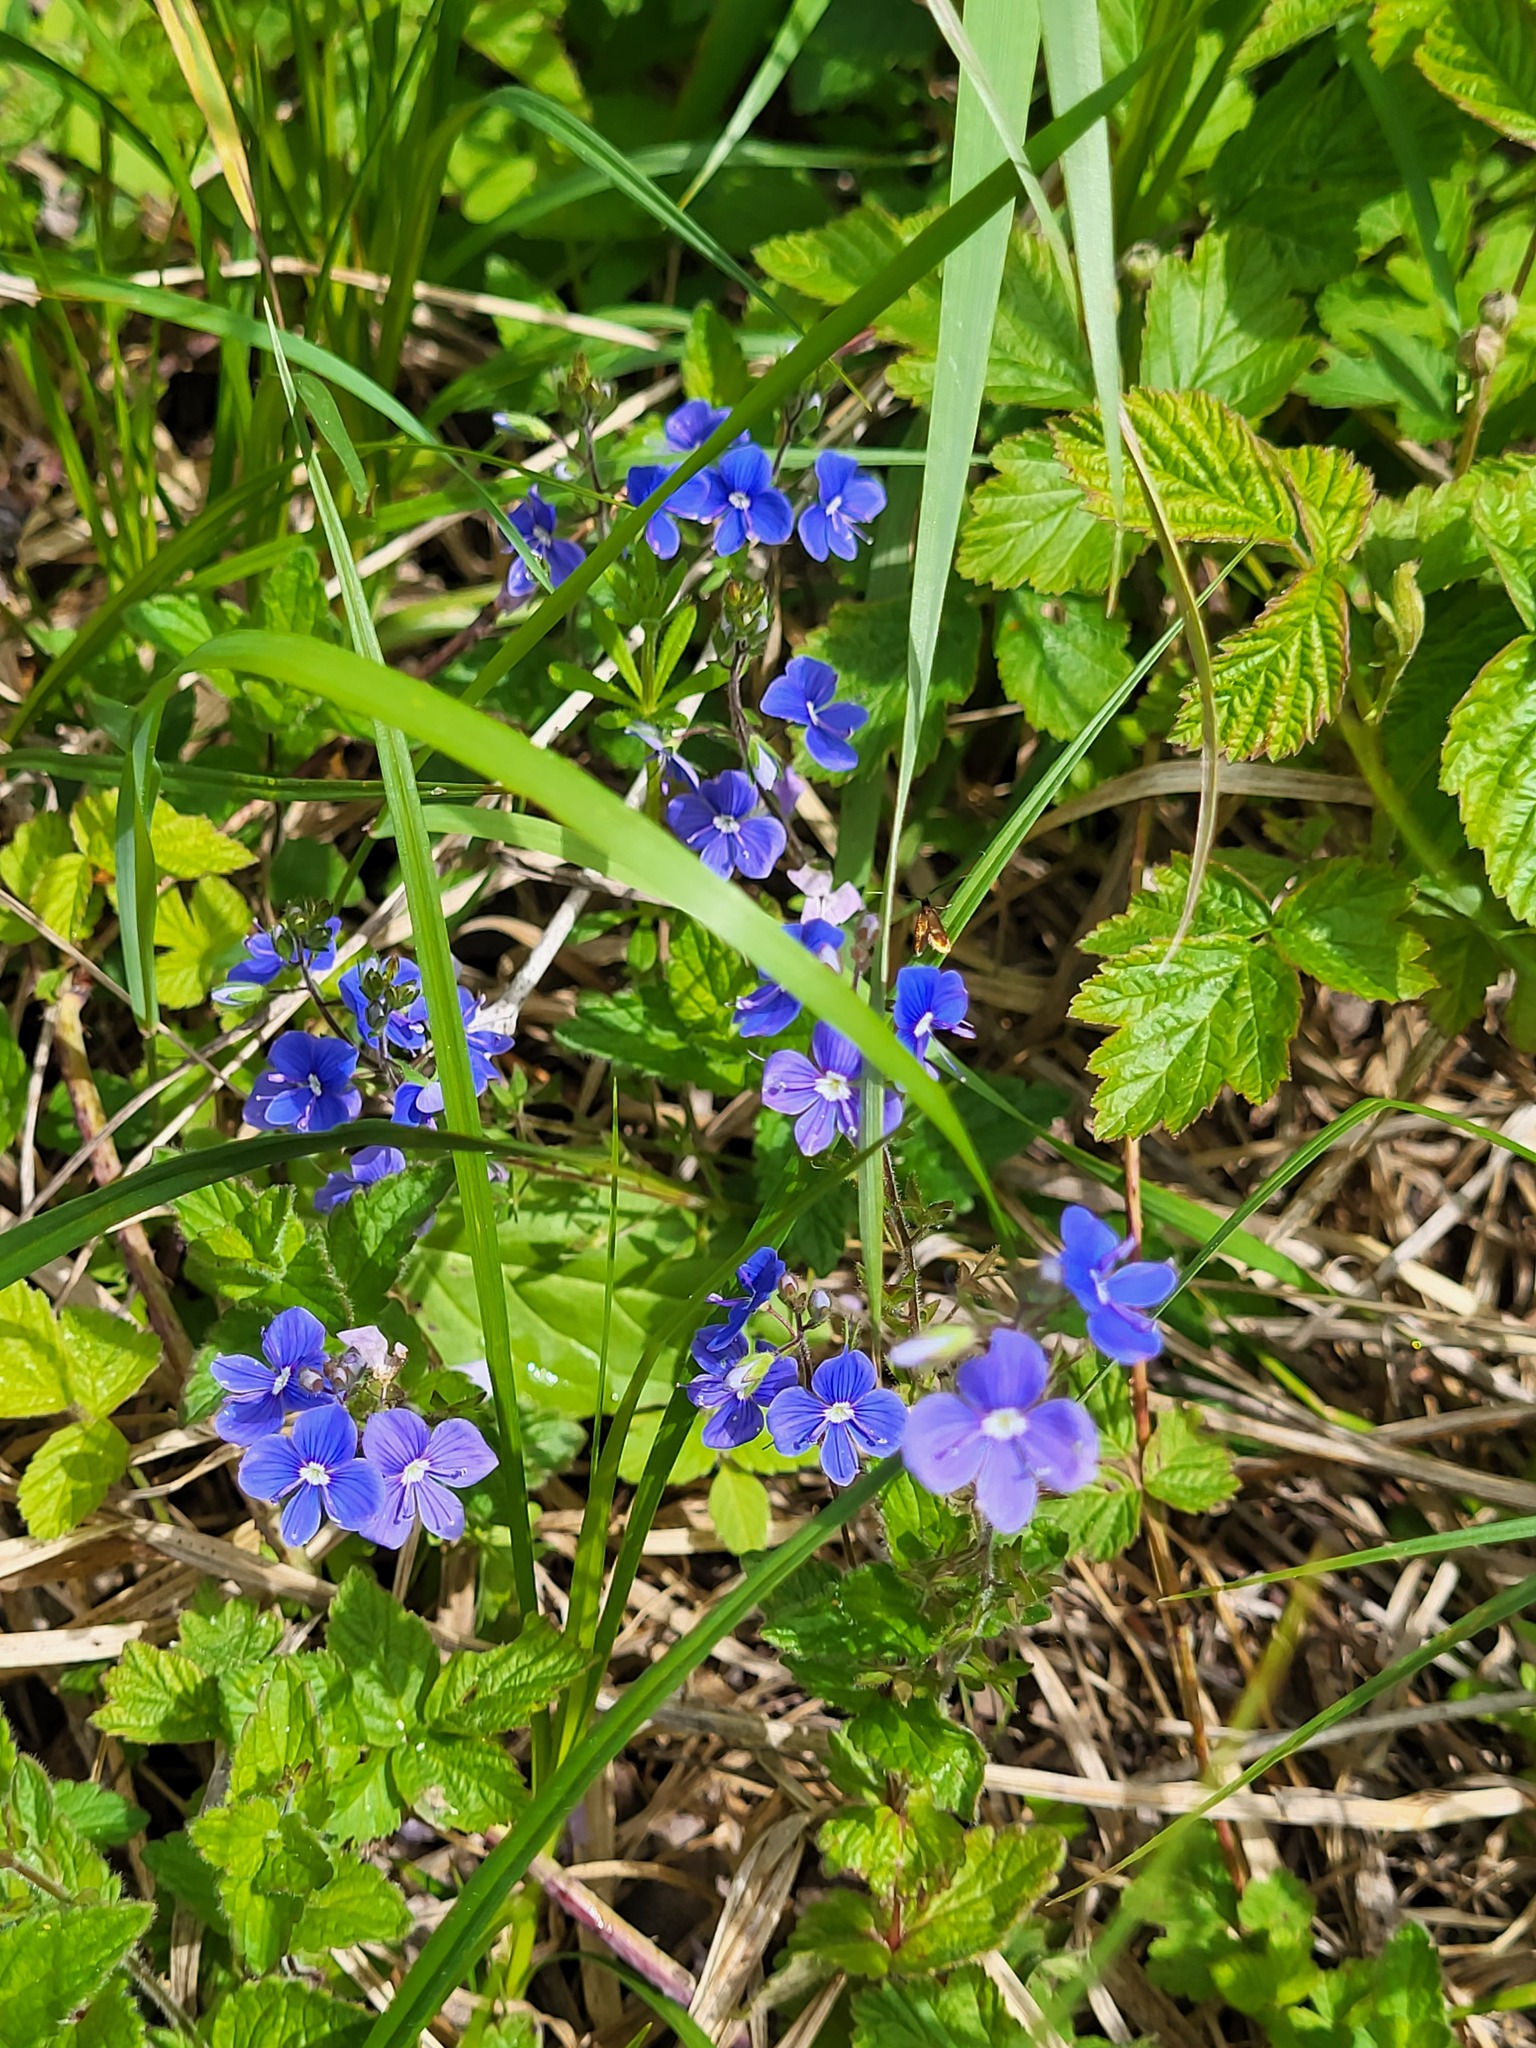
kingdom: Plantae
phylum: Tracheophyta
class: Magnoliopsida
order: Lamiales
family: Plantaginaceae
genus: Veronica
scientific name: Veronica chamaedrys
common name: Germander speedwell
